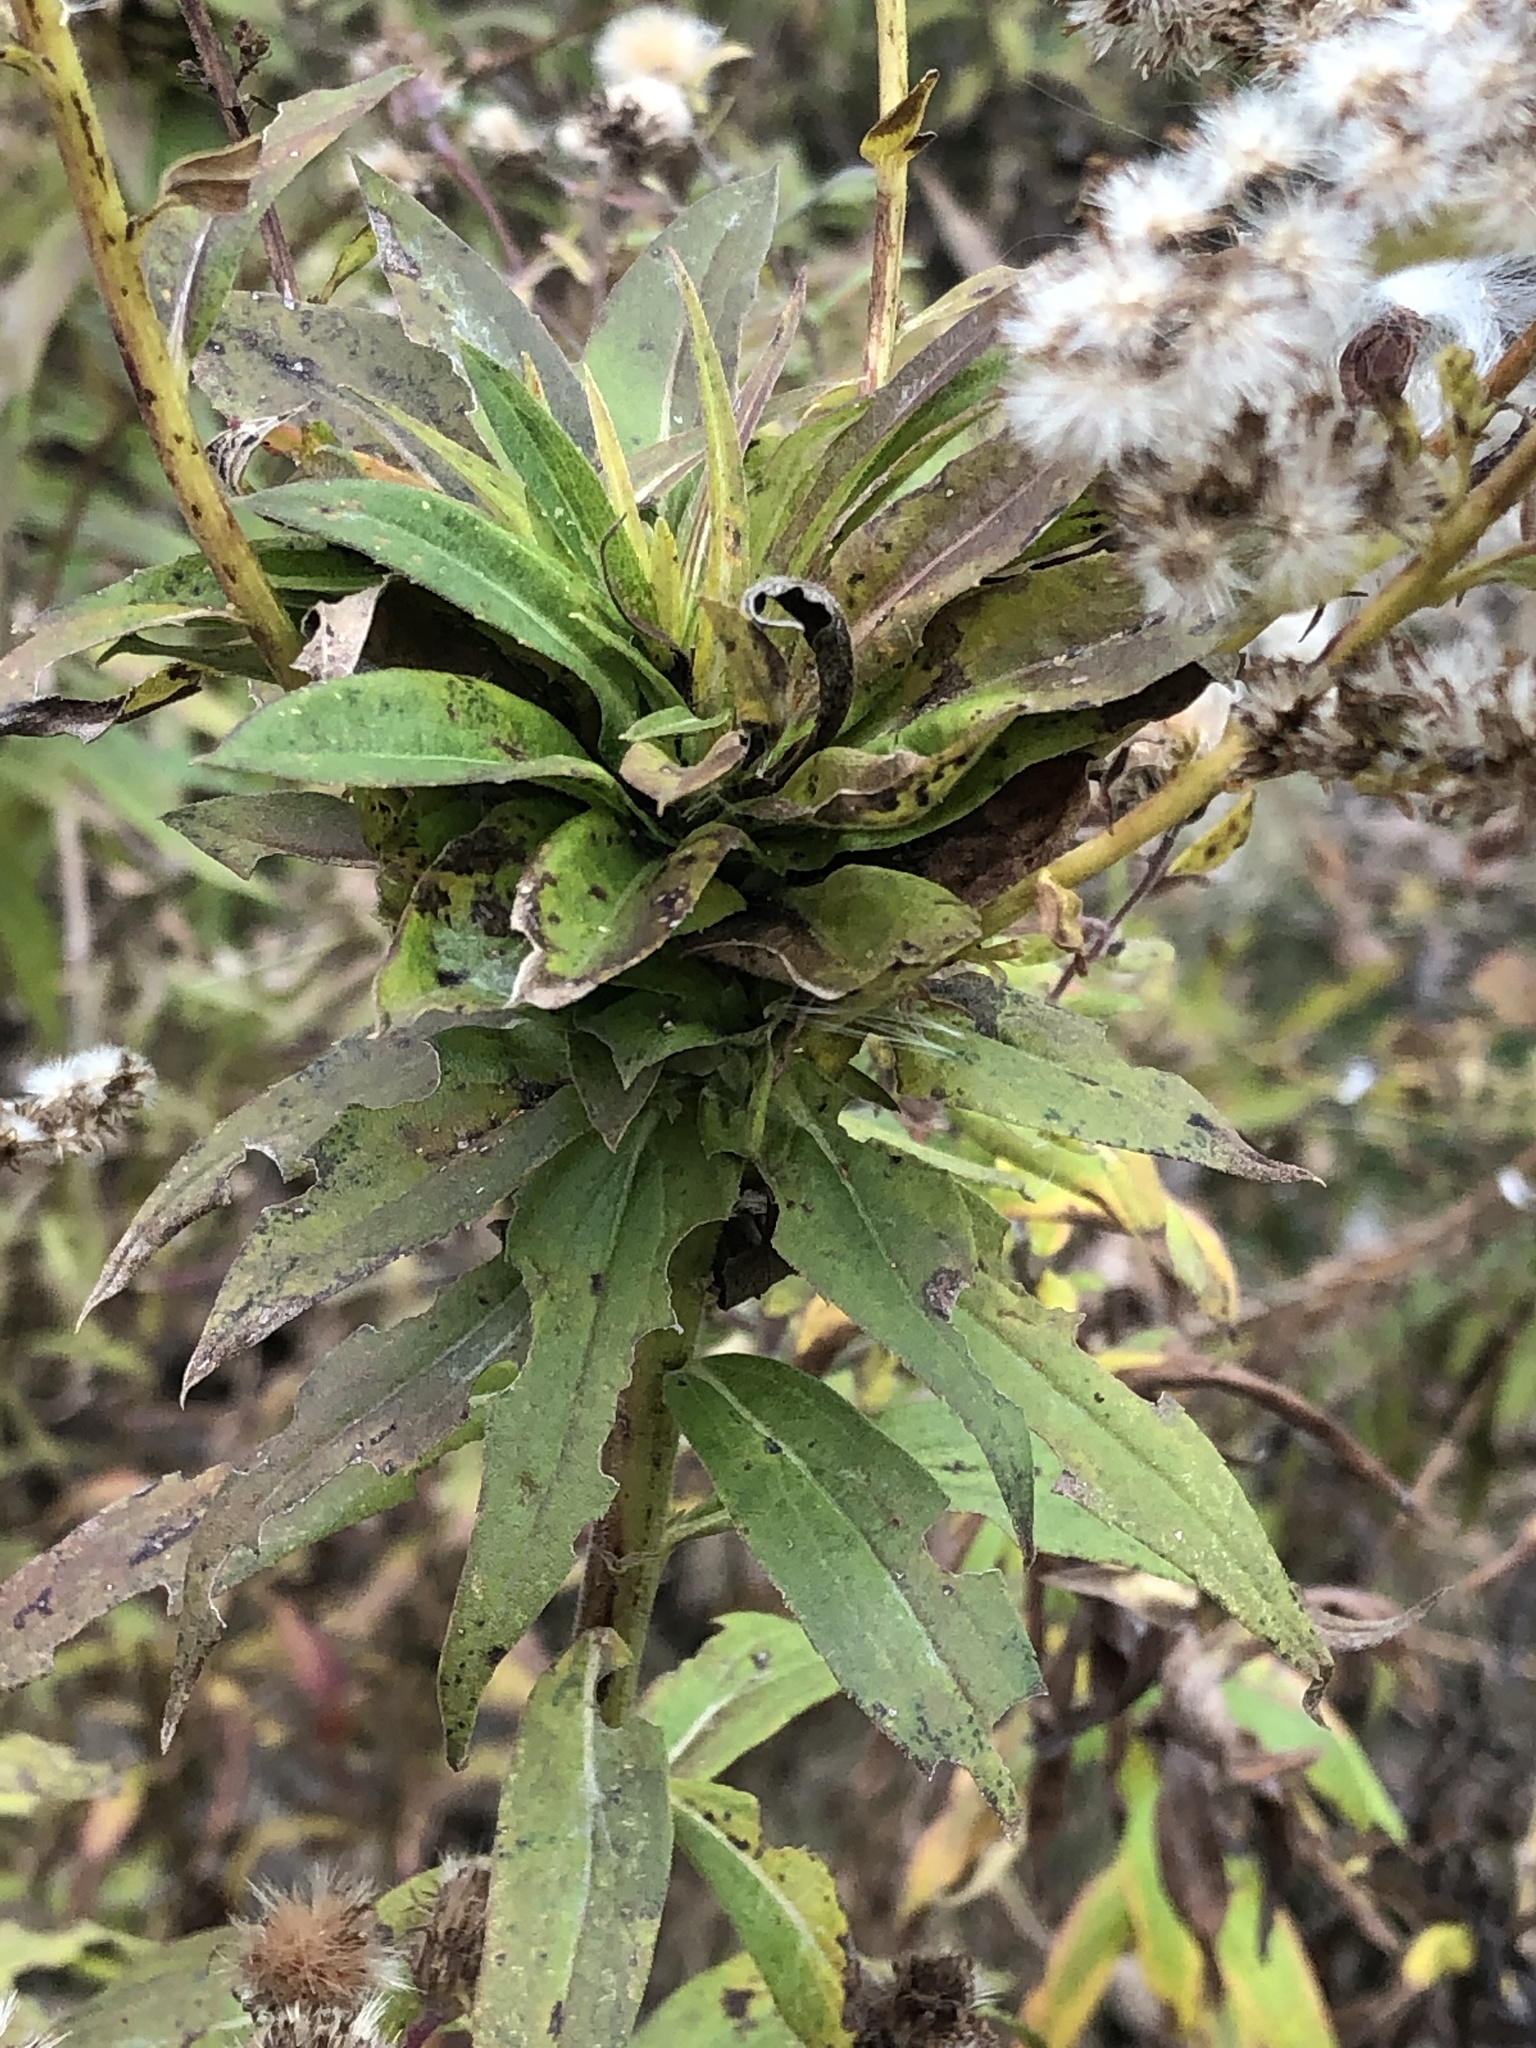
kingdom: Animalia
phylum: Arthropoda
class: Insecta
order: Diptera
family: Cecidomyiidae
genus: Rhopalomyia
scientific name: Rhopalomyia solidaginis
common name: Goldenrod bunch gall midge
